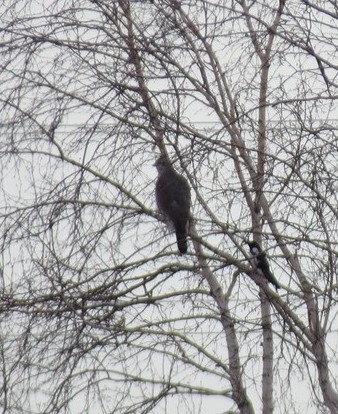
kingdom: Animalia
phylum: Chordata
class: Aves
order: Accipitriformes
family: Accipitridae
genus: Accipiter
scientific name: Accipiter gentilis
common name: Northern goshawk
